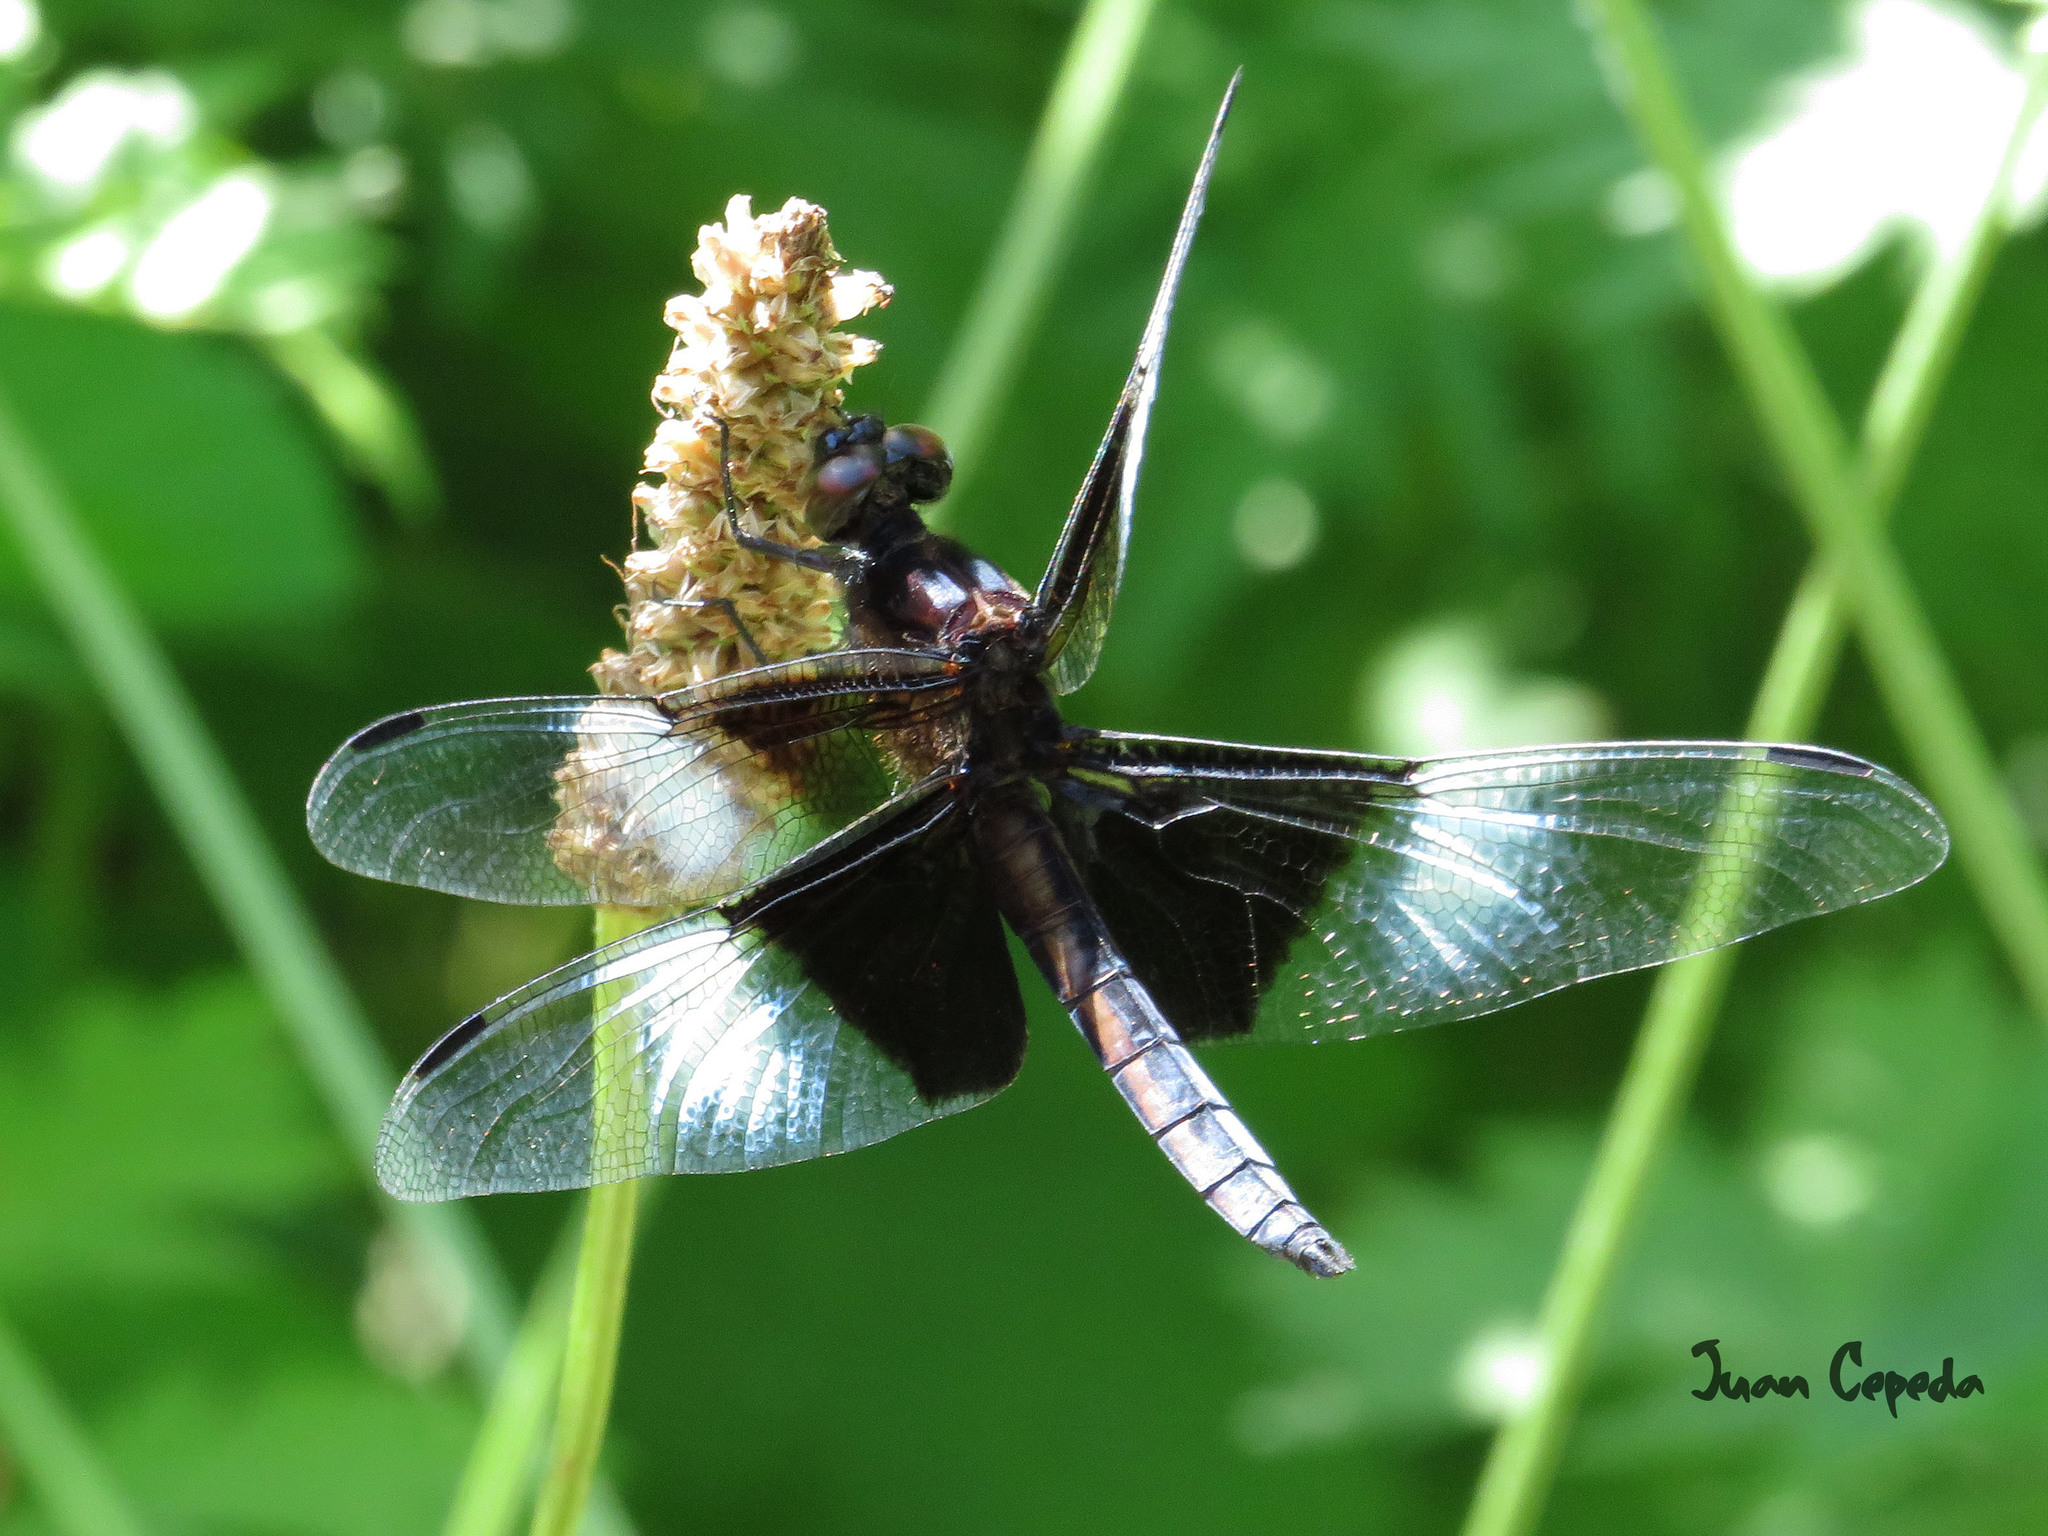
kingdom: Animalia
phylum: Arthropoda
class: Insecta
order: Odonata
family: Libellulidae
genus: Libellula
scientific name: Libellula luctuosa
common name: Widow skimmer
